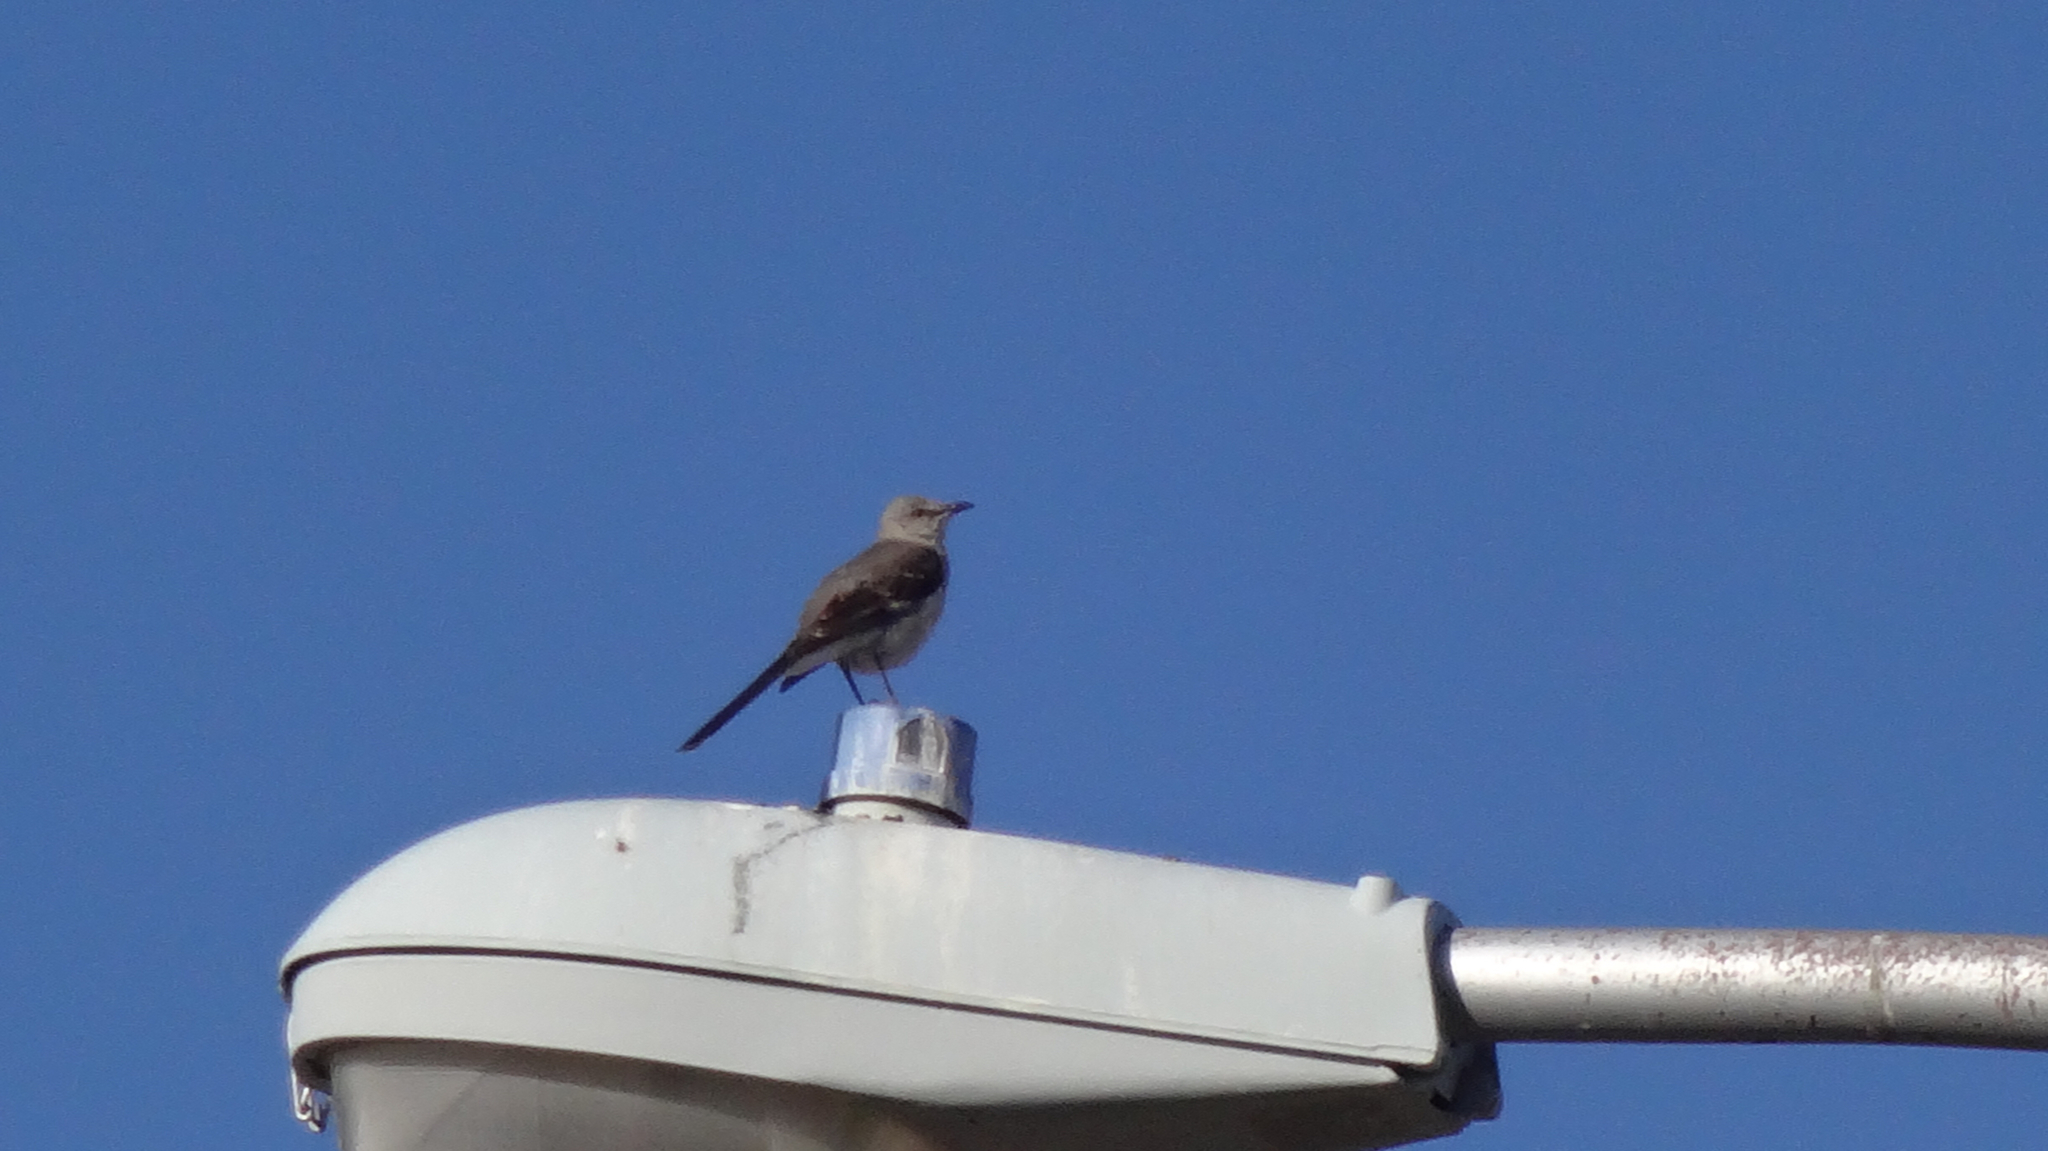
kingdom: Animalia
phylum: Chordata
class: Aves
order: Passeriformes
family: Mimidae
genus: Mimus
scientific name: Mimus polyglottos
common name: Northern mockingbird
